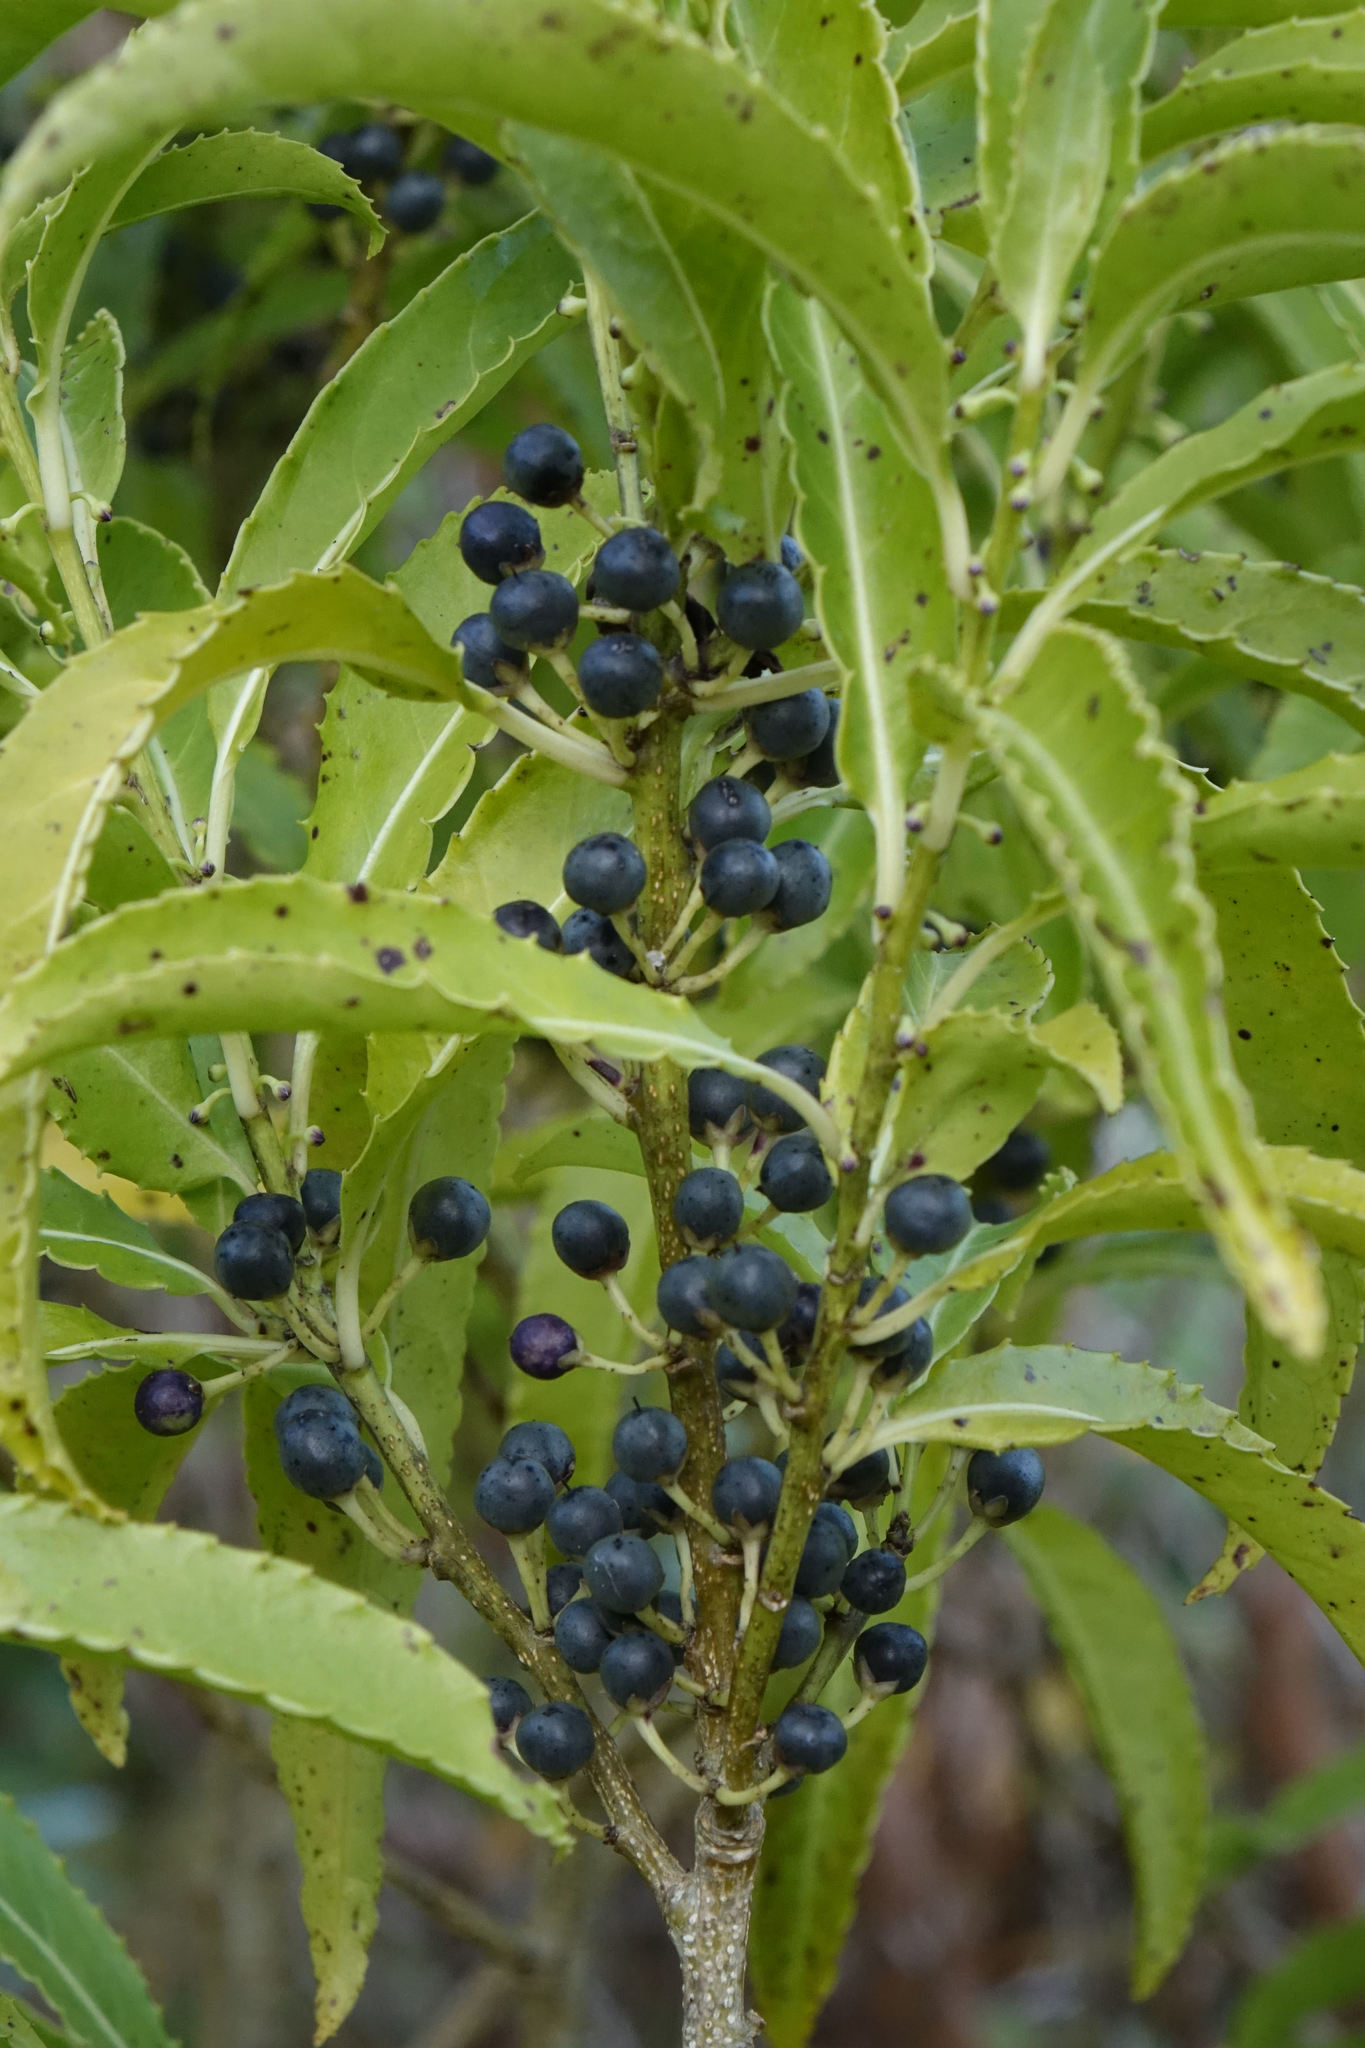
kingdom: Plantae
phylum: Tracheophyta
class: Magnoliopsida
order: Malpighiales
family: Violaceae
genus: Melicytus
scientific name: Melicytus lanceolatus
